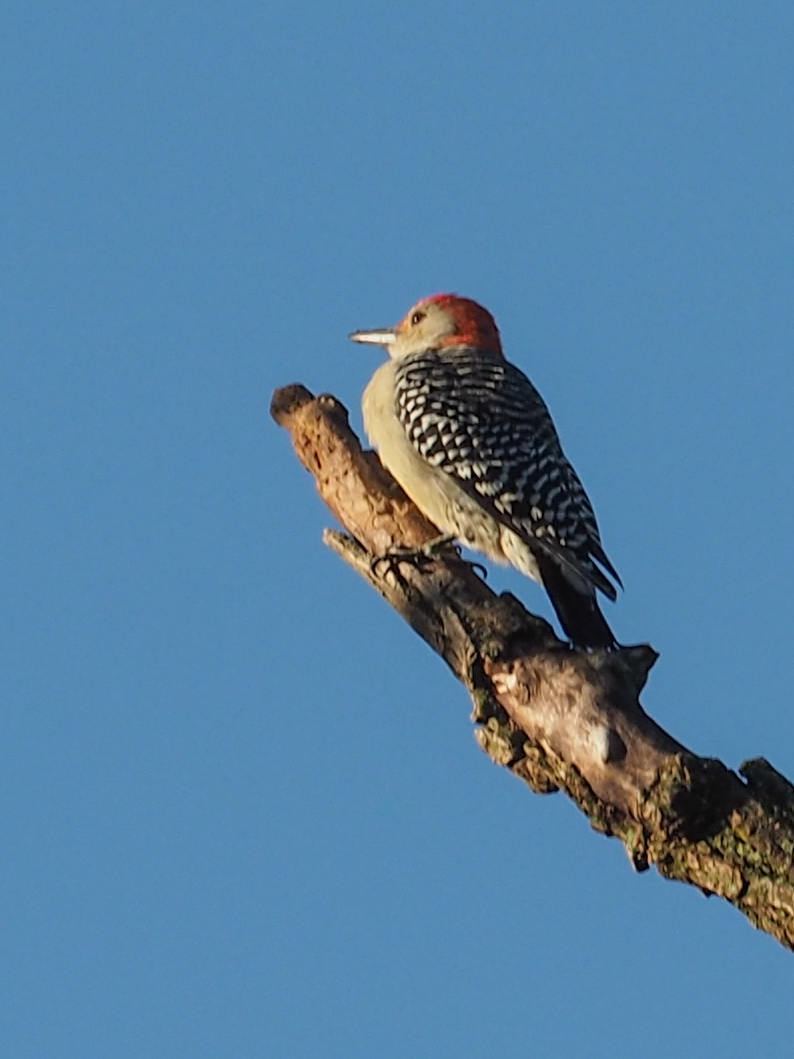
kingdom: Animalia
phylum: Chordata
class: Aves
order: Piciformes
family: Picidae
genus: Melanerpes
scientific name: Melanerpes carolinus
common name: Red-bellied woodpecker
